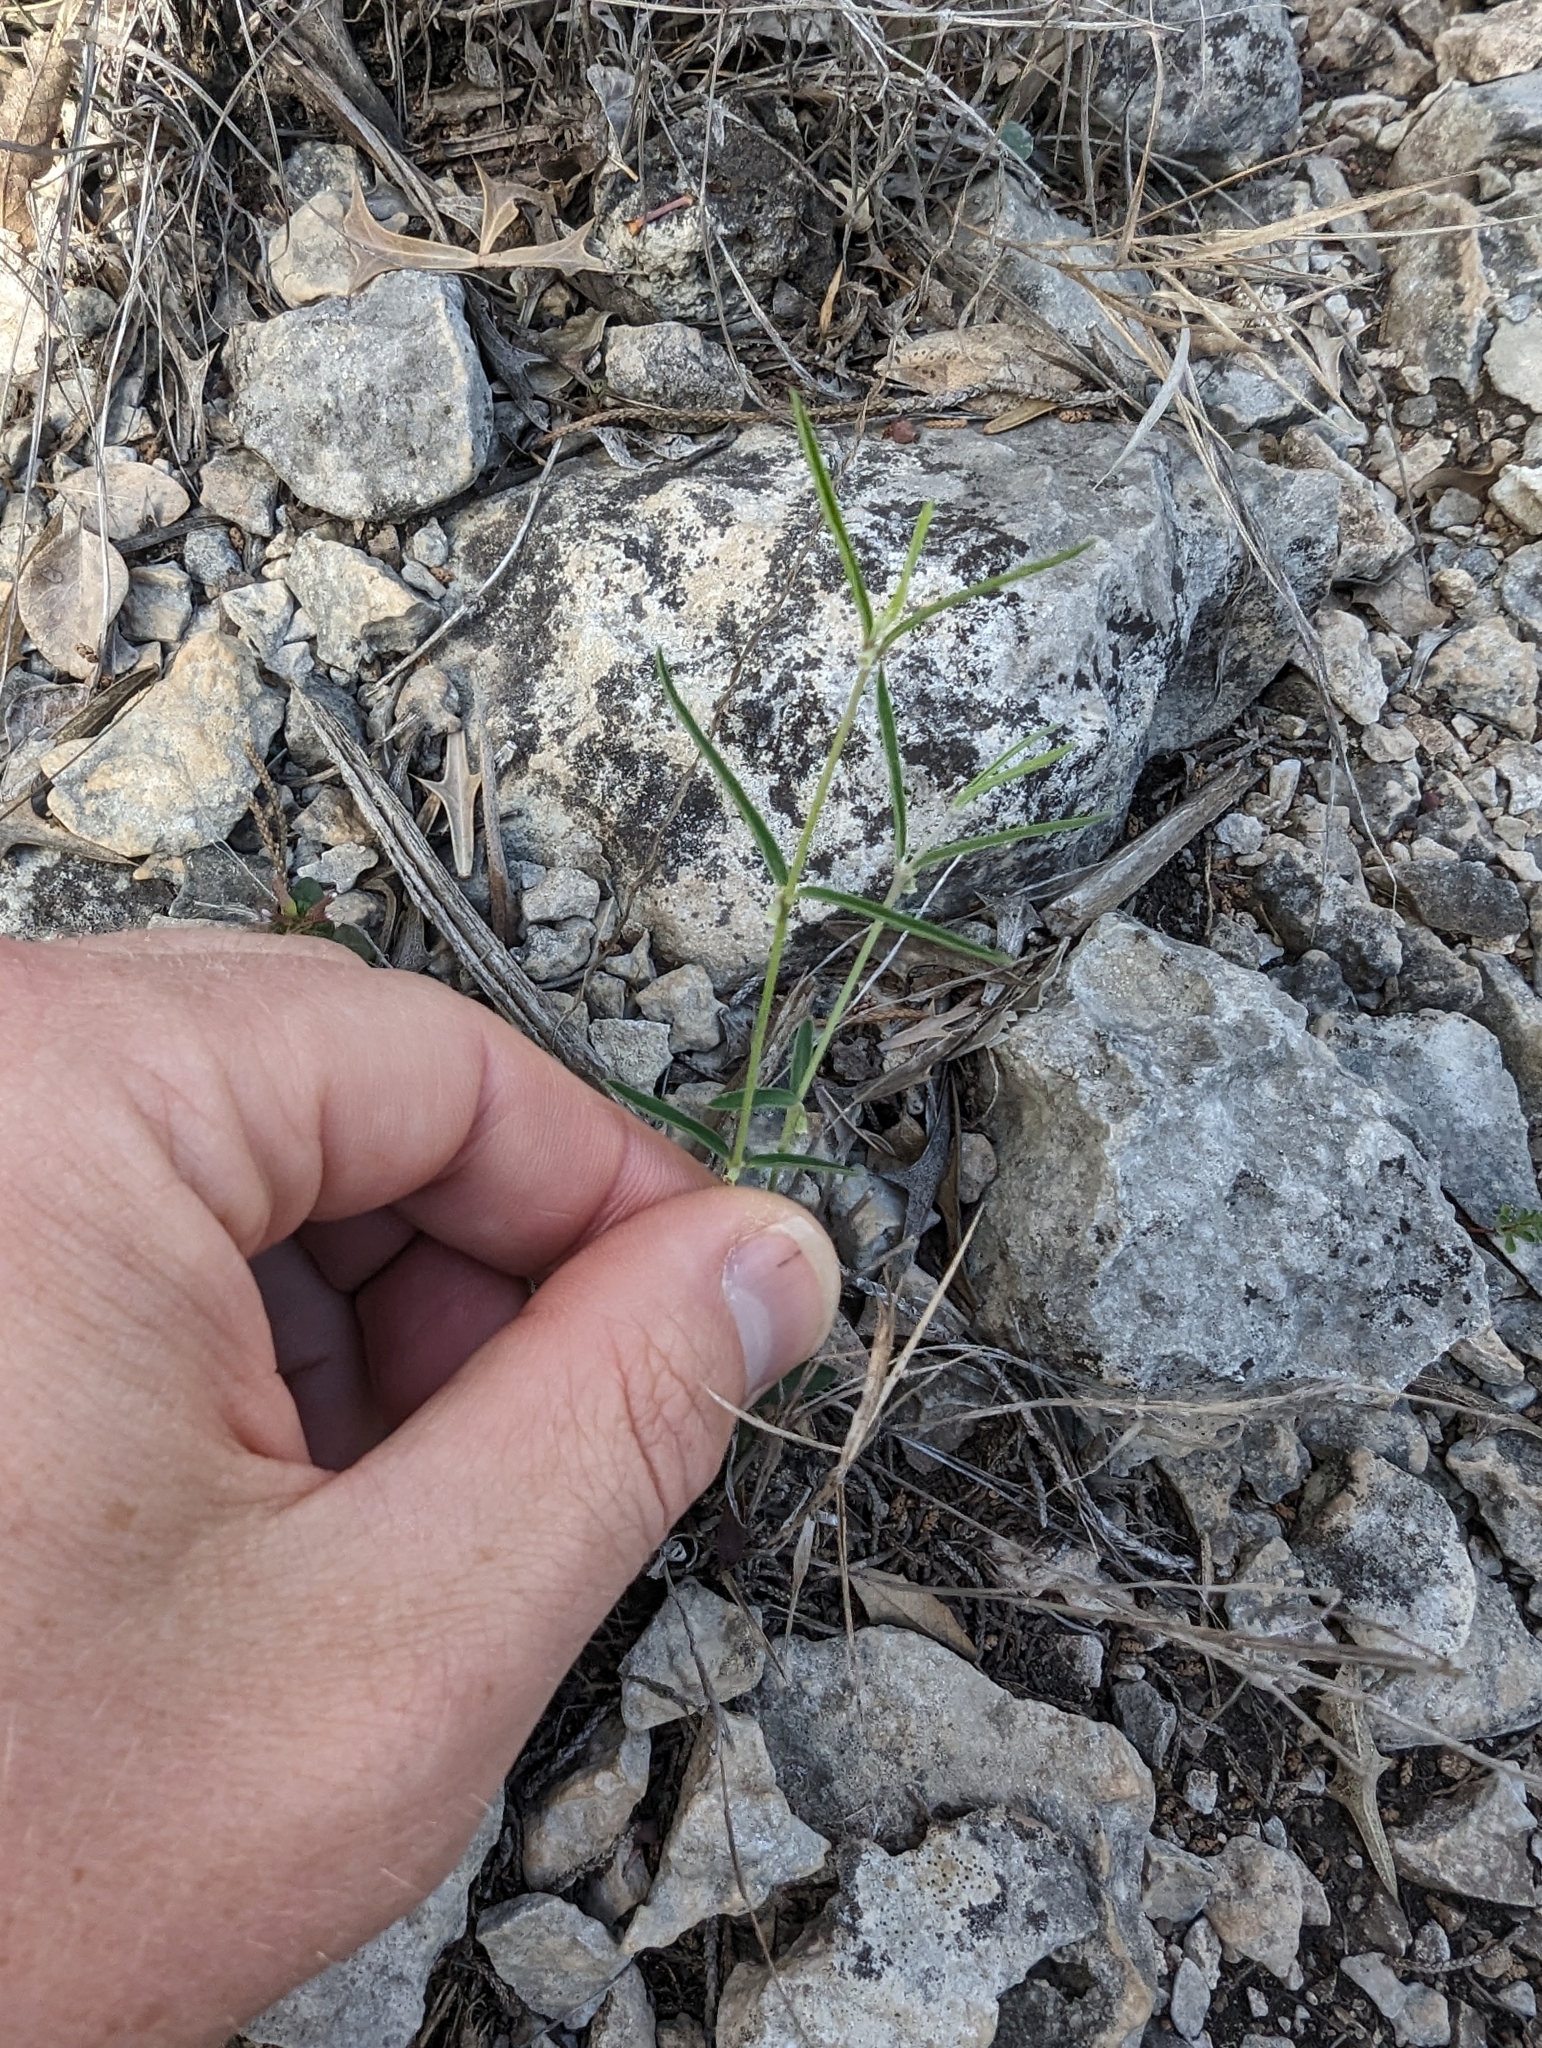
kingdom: Plantae
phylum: Tracheophyta
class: Magnoliopsida
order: Malpighiales
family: Euphorbiaceae
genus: Euphorbia
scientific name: Euphorbia angusta
